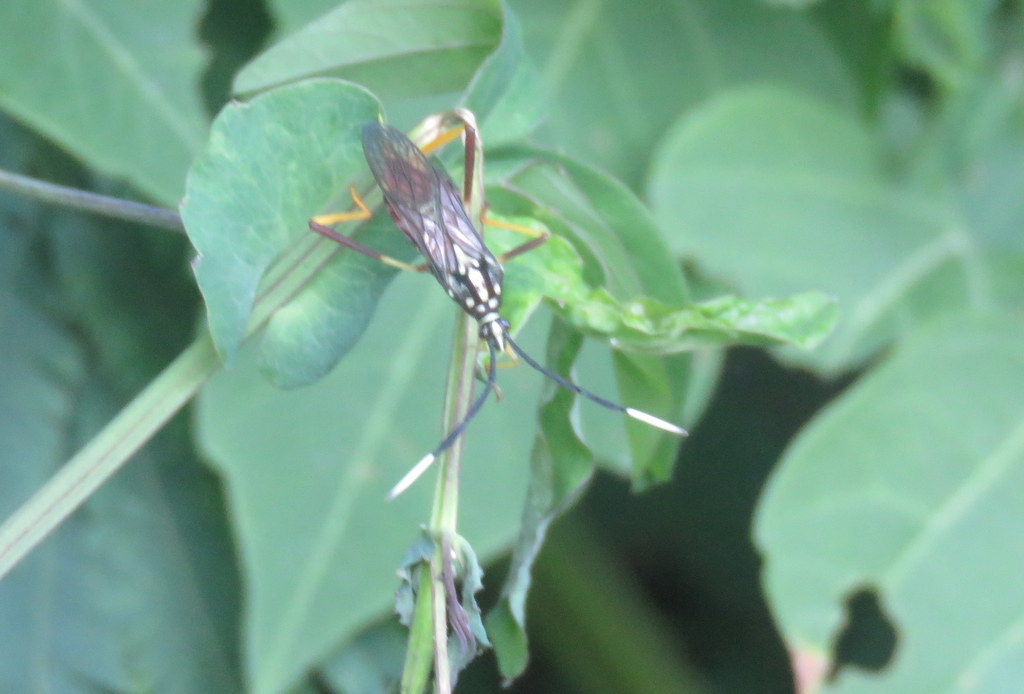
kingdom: Animalia
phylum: Arthropoda
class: Insecta
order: Hemiptera
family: Coreidae
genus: Holhymenia
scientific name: Holhymenia histrio
